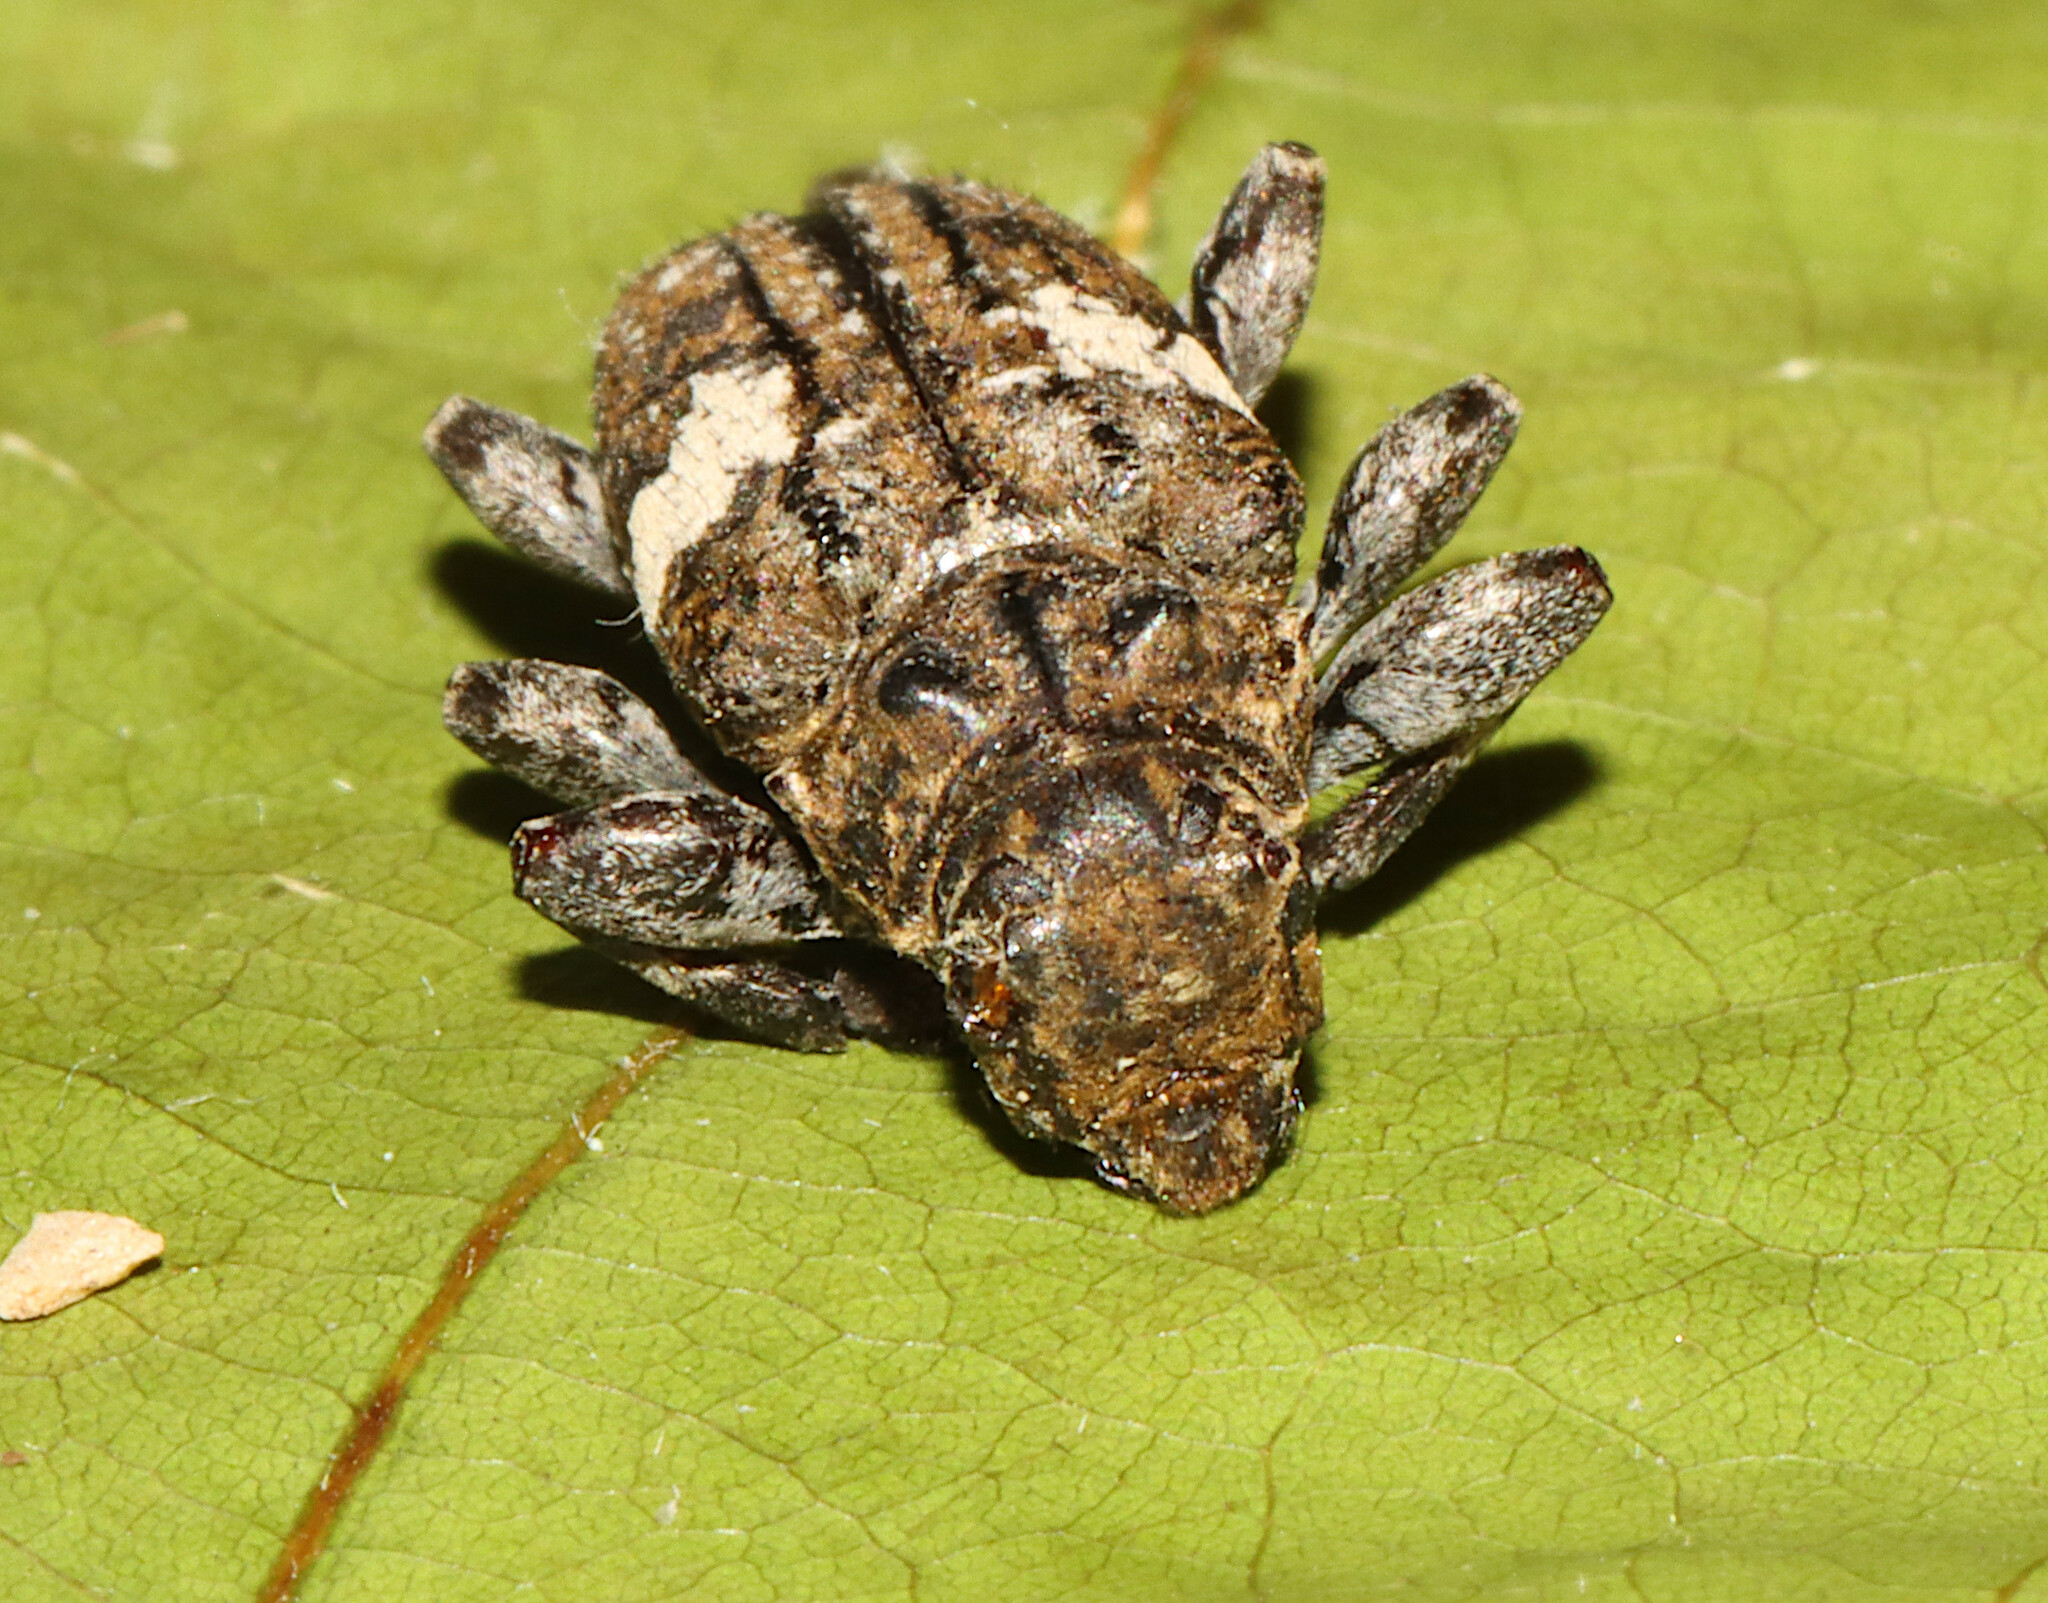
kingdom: Animalia
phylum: Arthropoda
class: Insecta
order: Coleoptera
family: Cerambycidae
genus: Acanthoderes
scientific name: Acanthoderes quadrigibba
